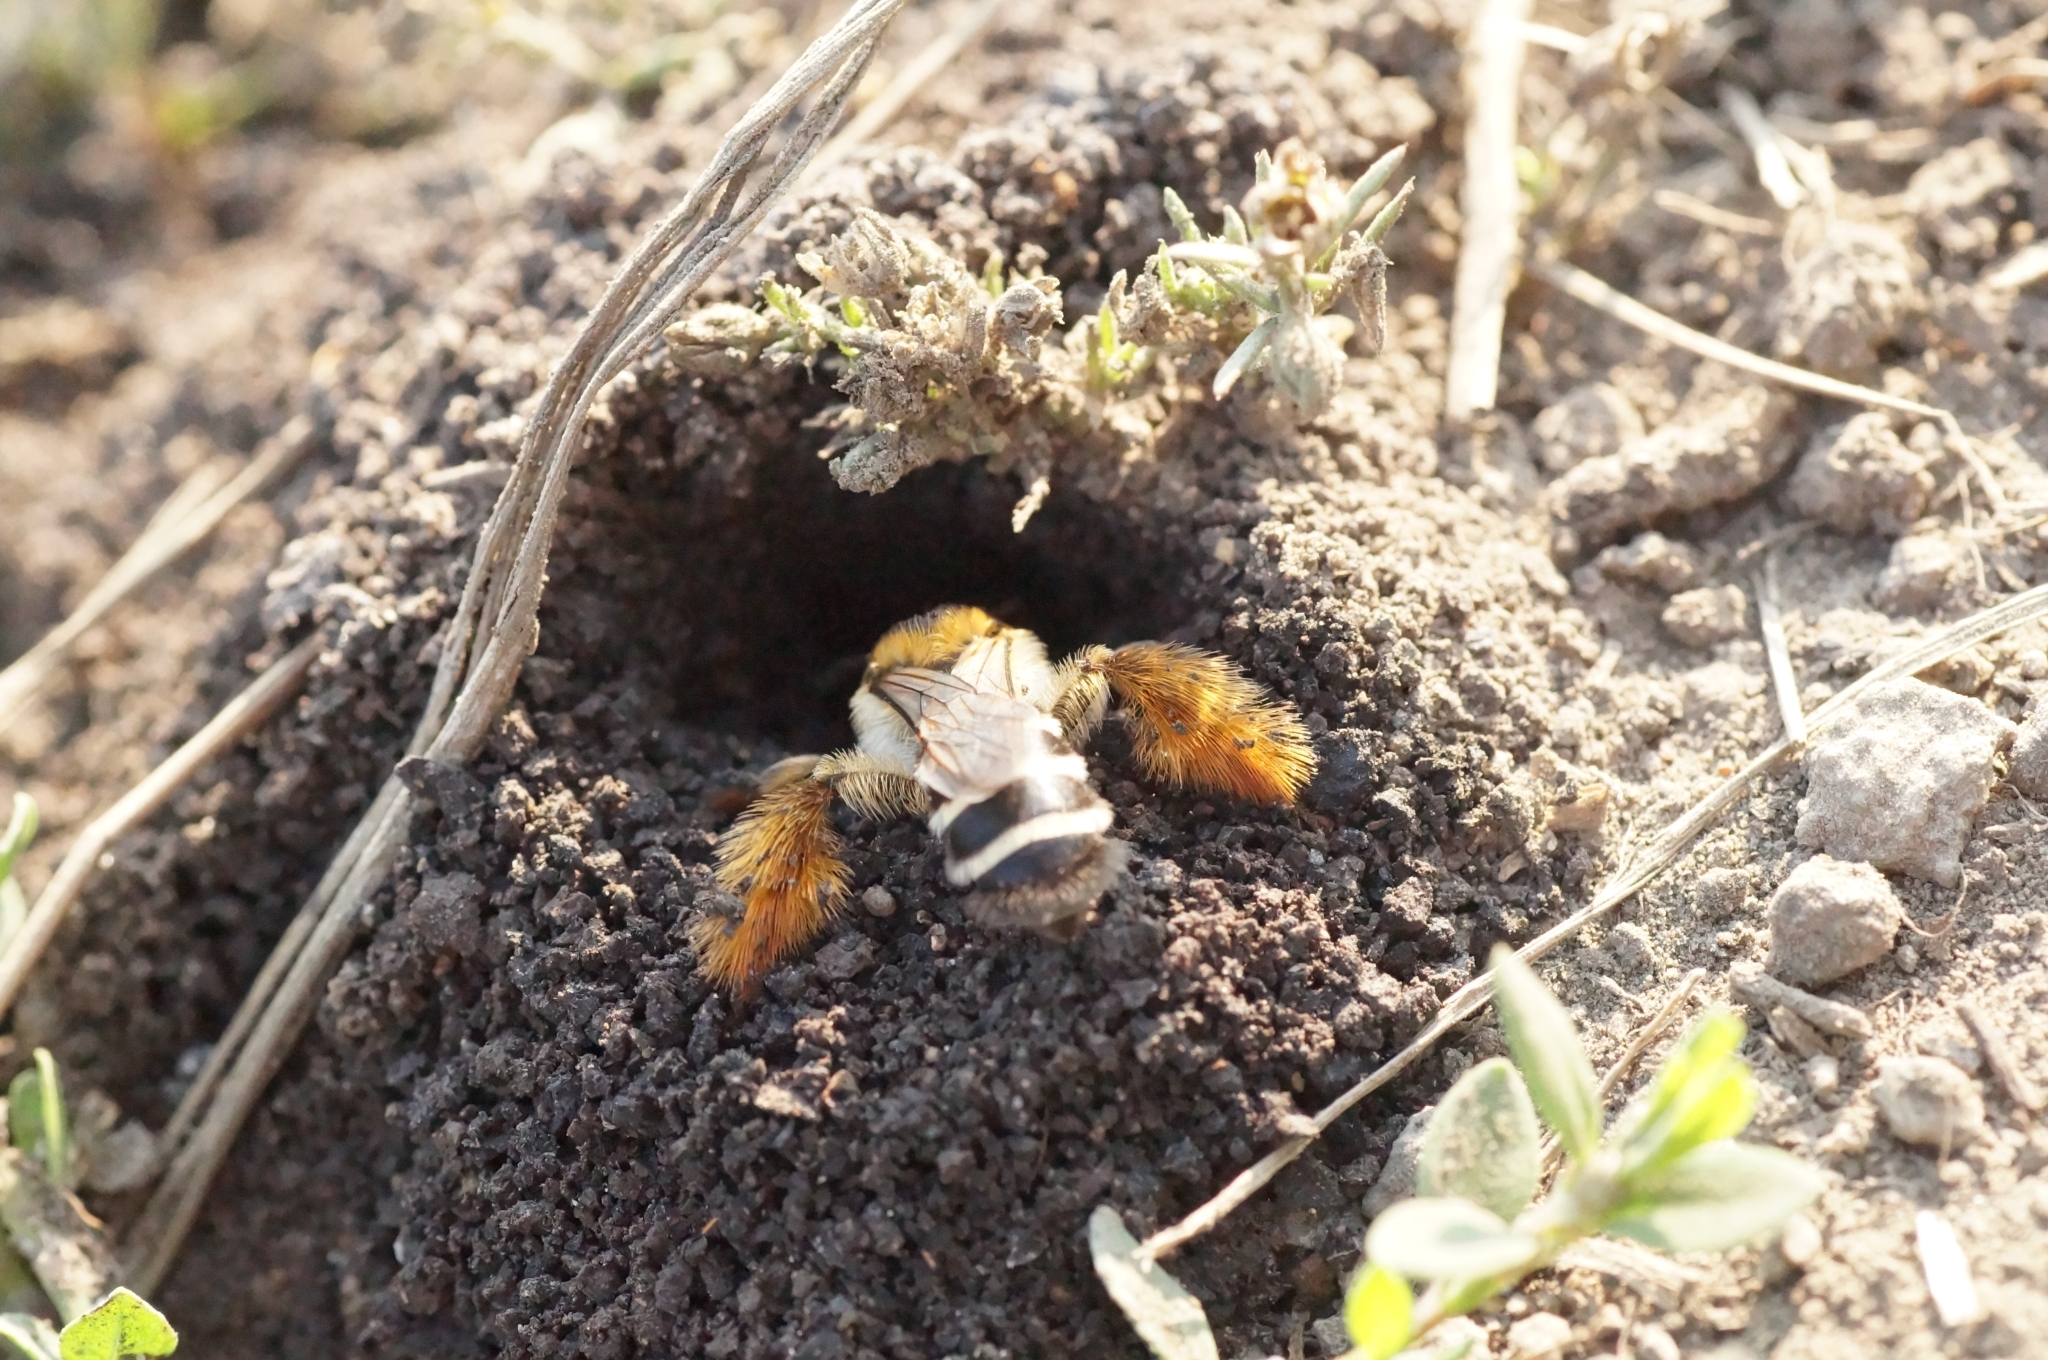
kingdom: Animalia
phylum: Arthropoda
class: Insecta
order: Hymenoptera
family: Melittidae
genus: Dasypoda
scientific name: Dasypoda
